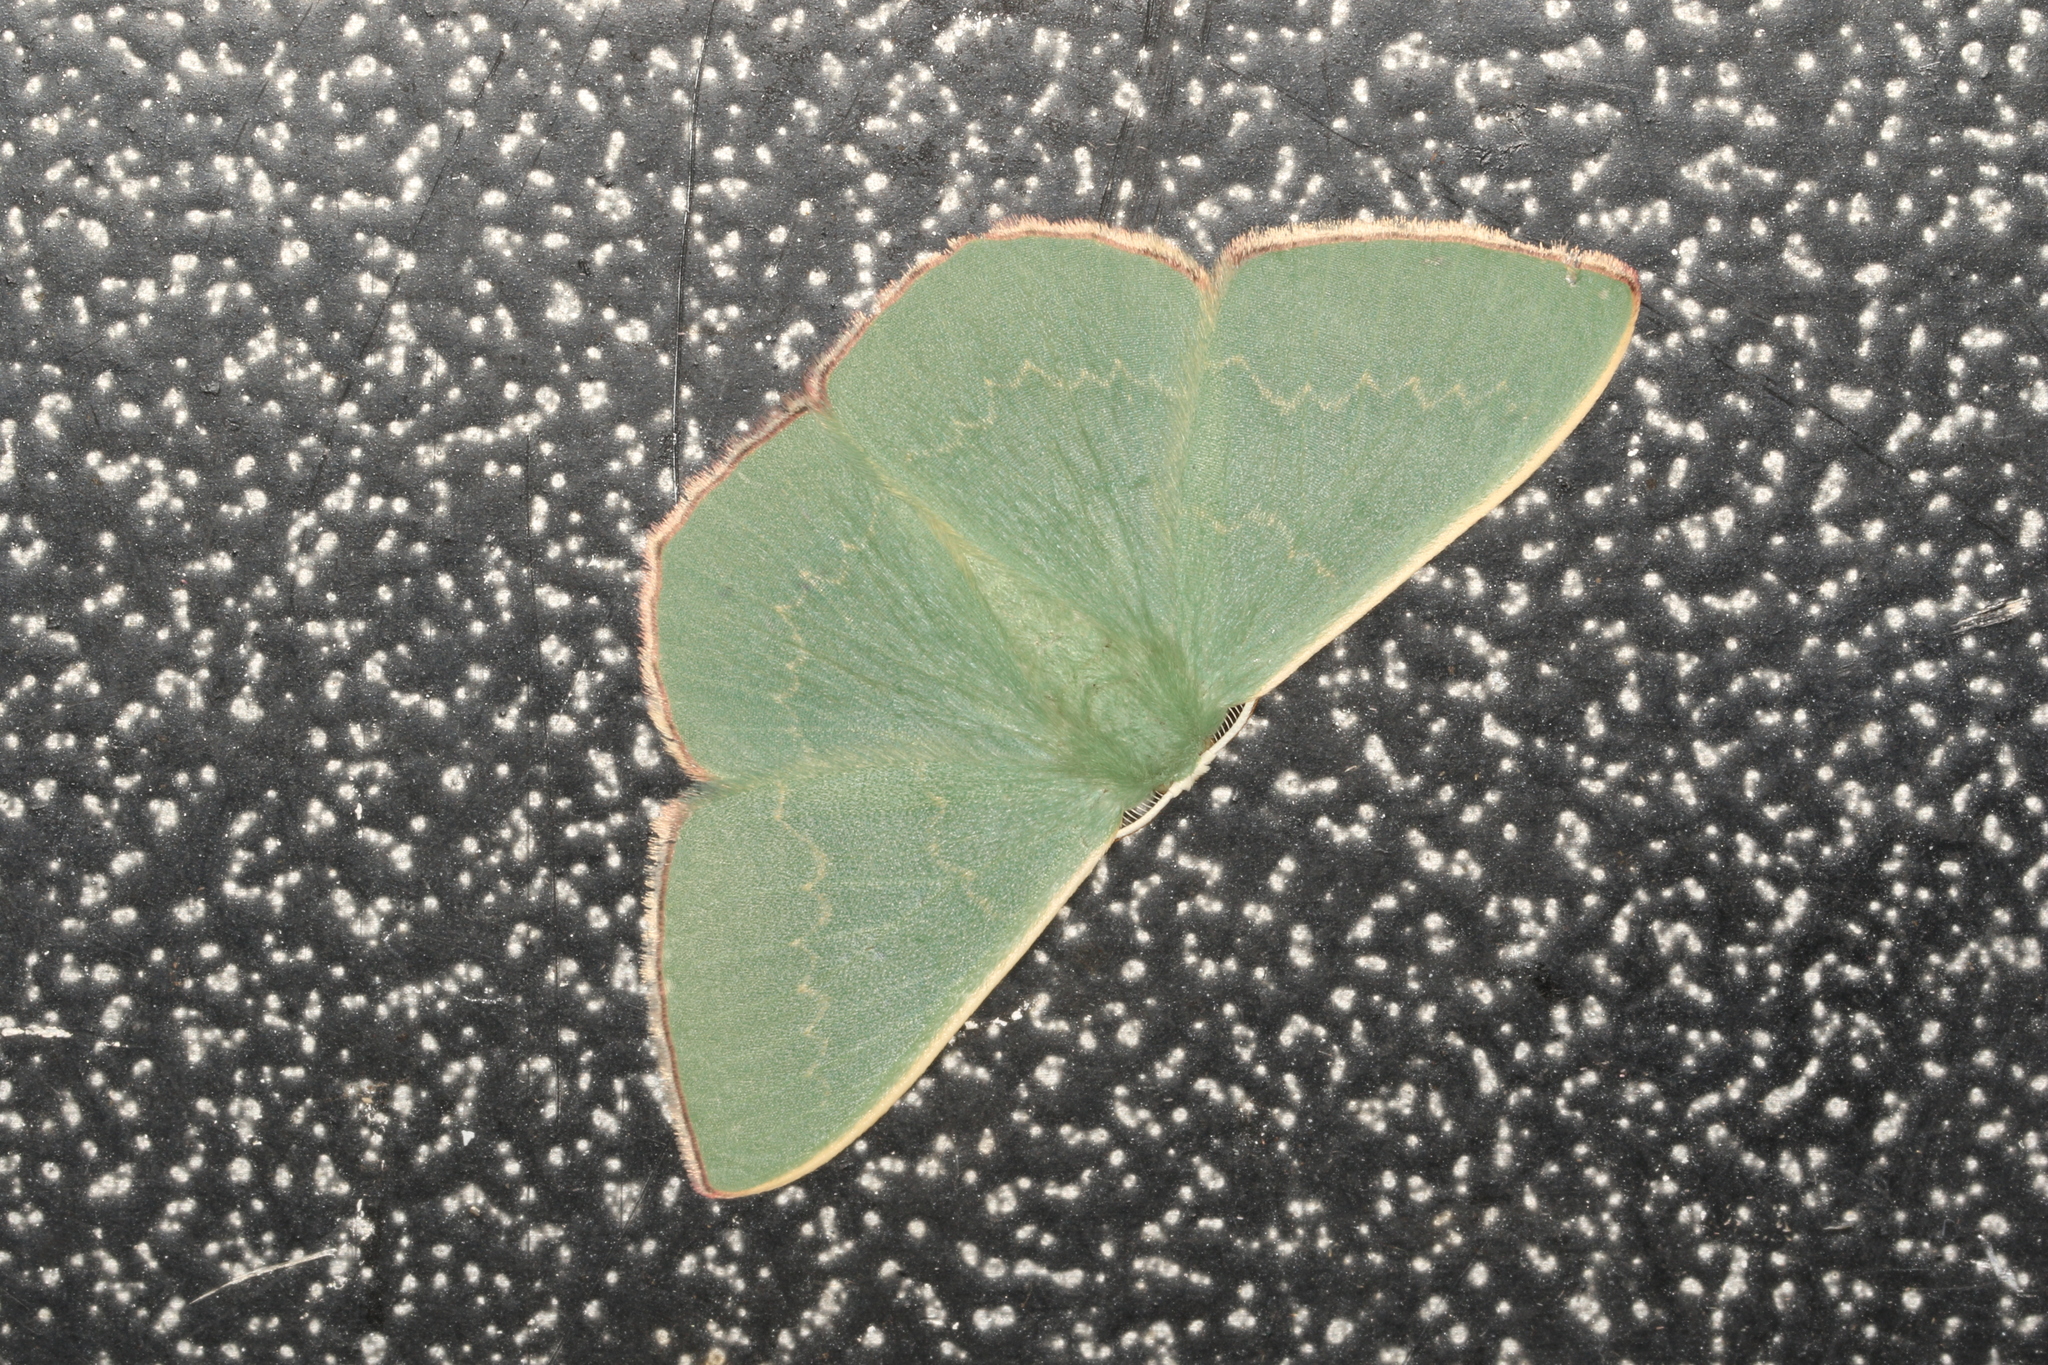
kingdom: Animalia
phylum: Arthropoda
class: Insecta
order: Lepidoptera
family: Geometridae
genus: Prasinocyma
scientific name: Prasinocyma semicrocea
